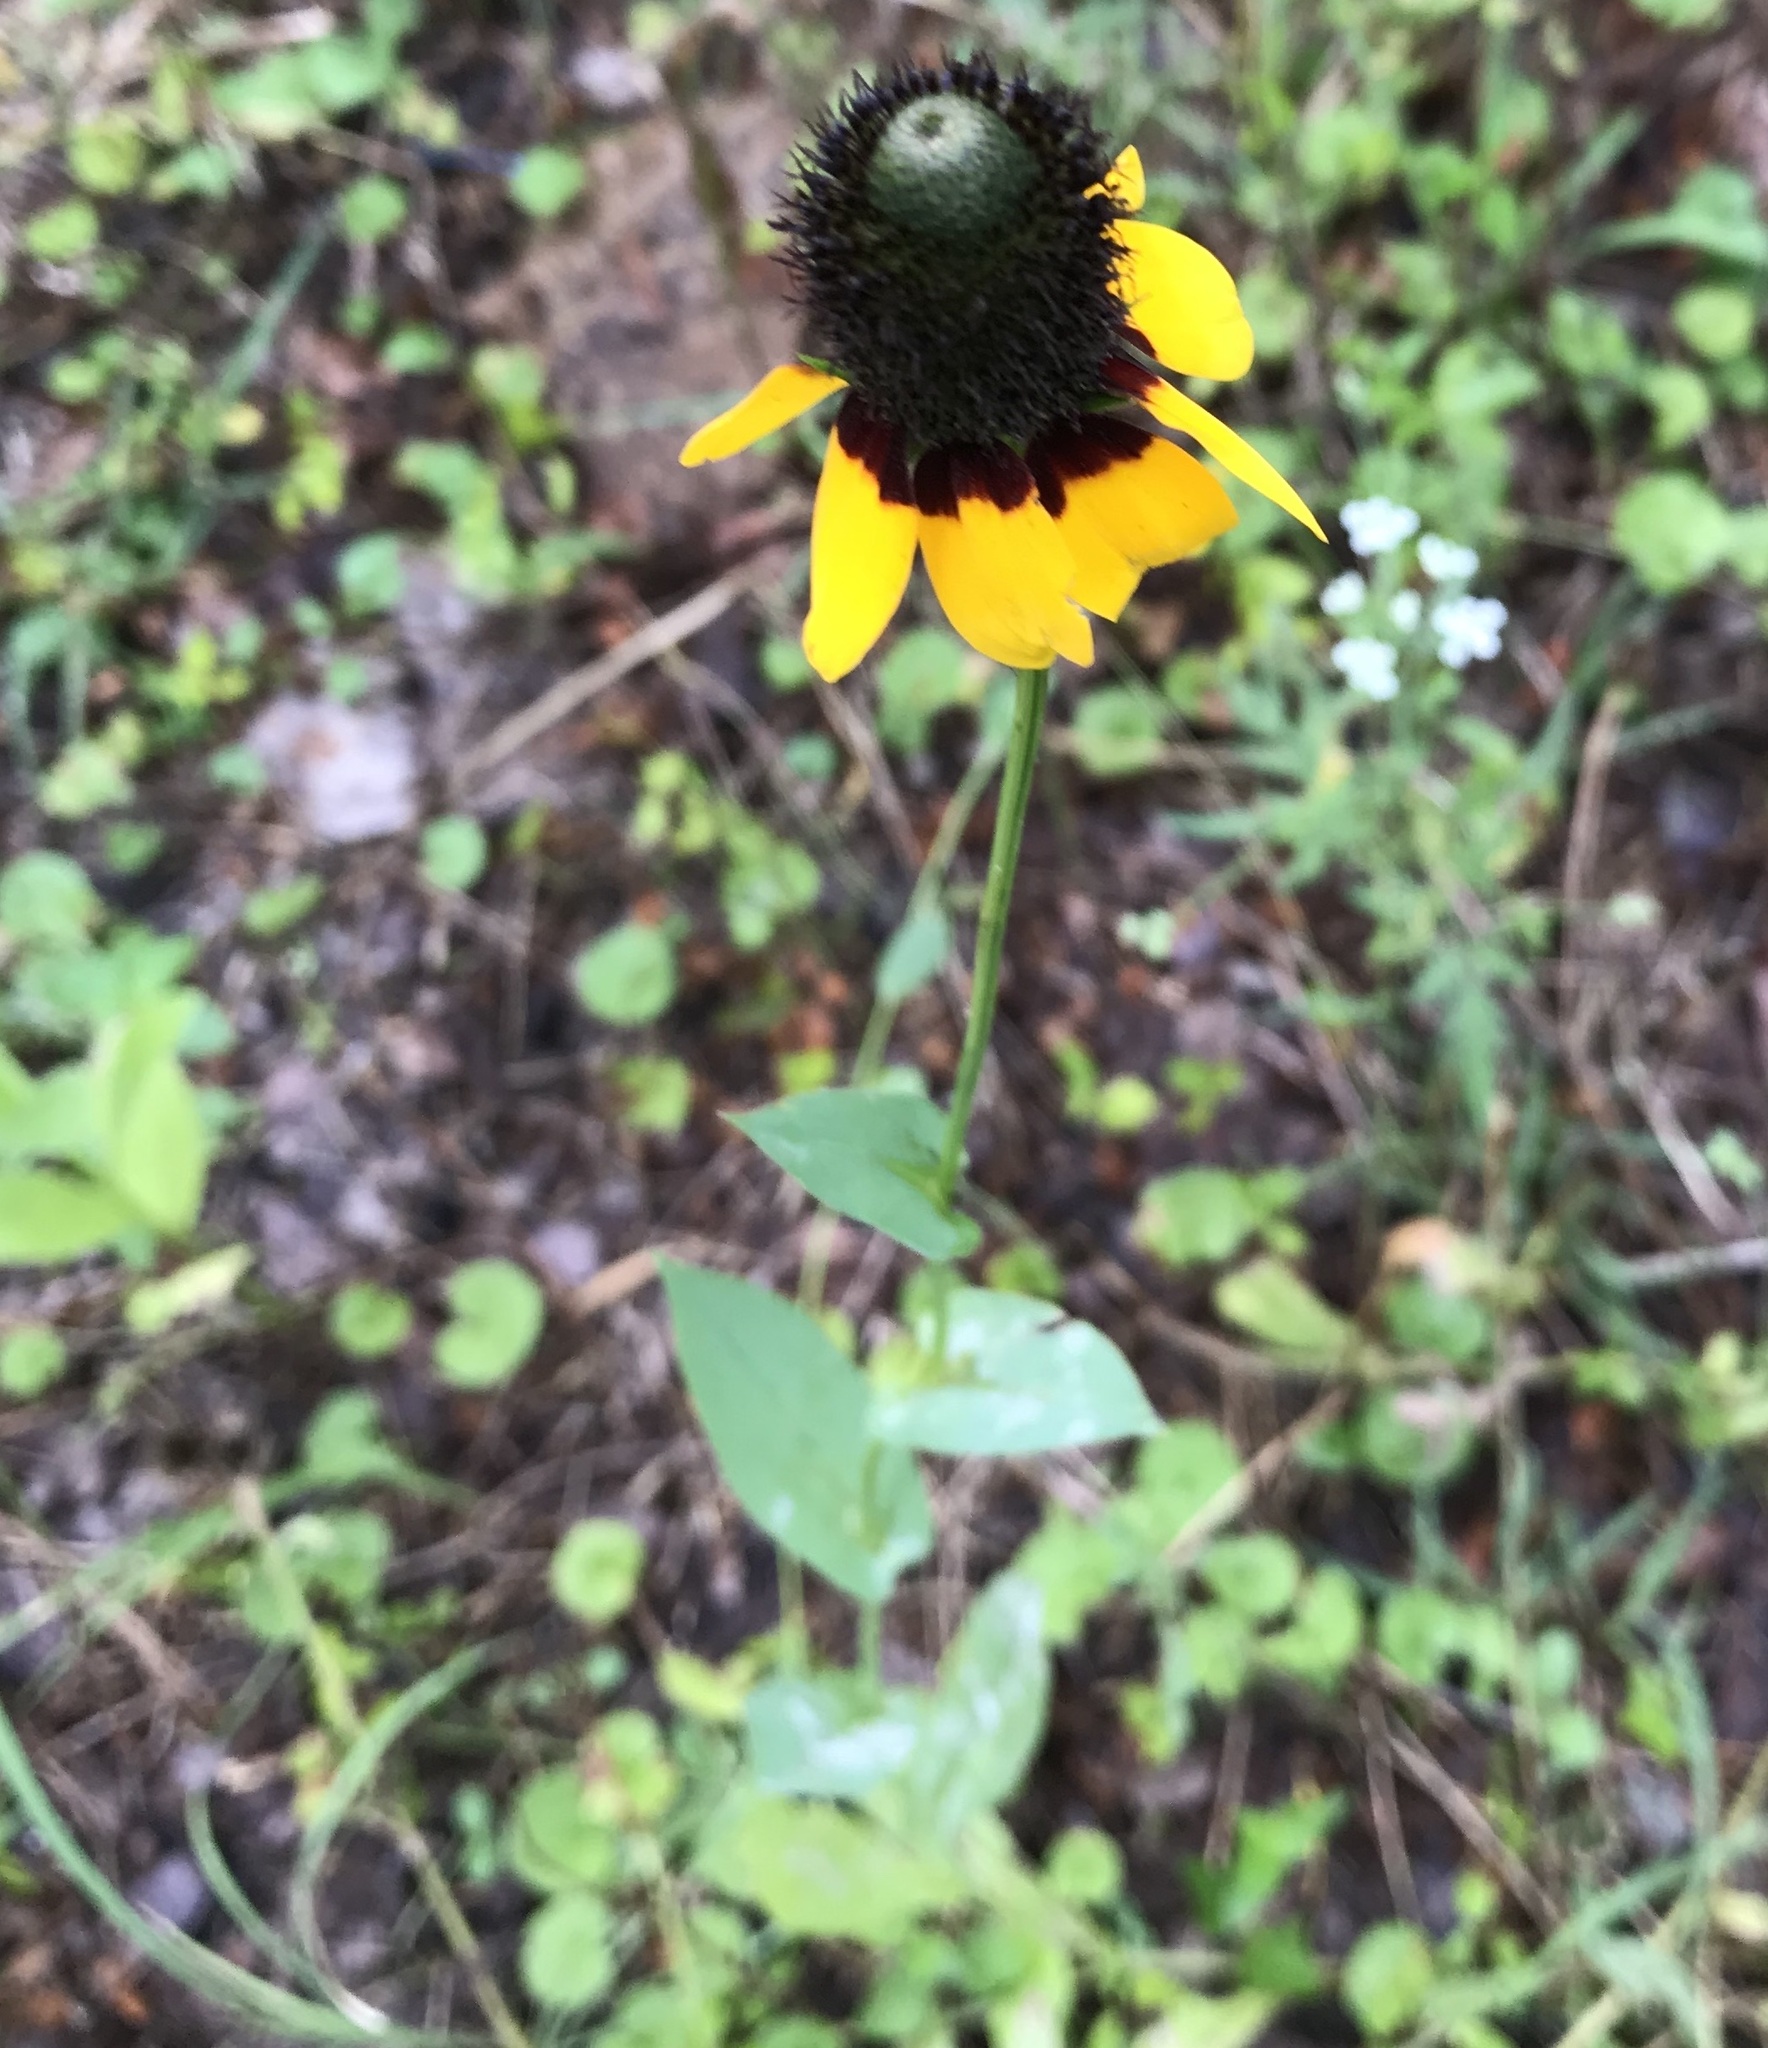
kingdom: Plantae
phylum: Tracheophyta
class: Magnoliopsida
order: Asterales
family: Asteraceae
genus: Rudbeckia
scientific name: Rudbeckia amplexicaulis
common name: Clasping-leaf coneflower
